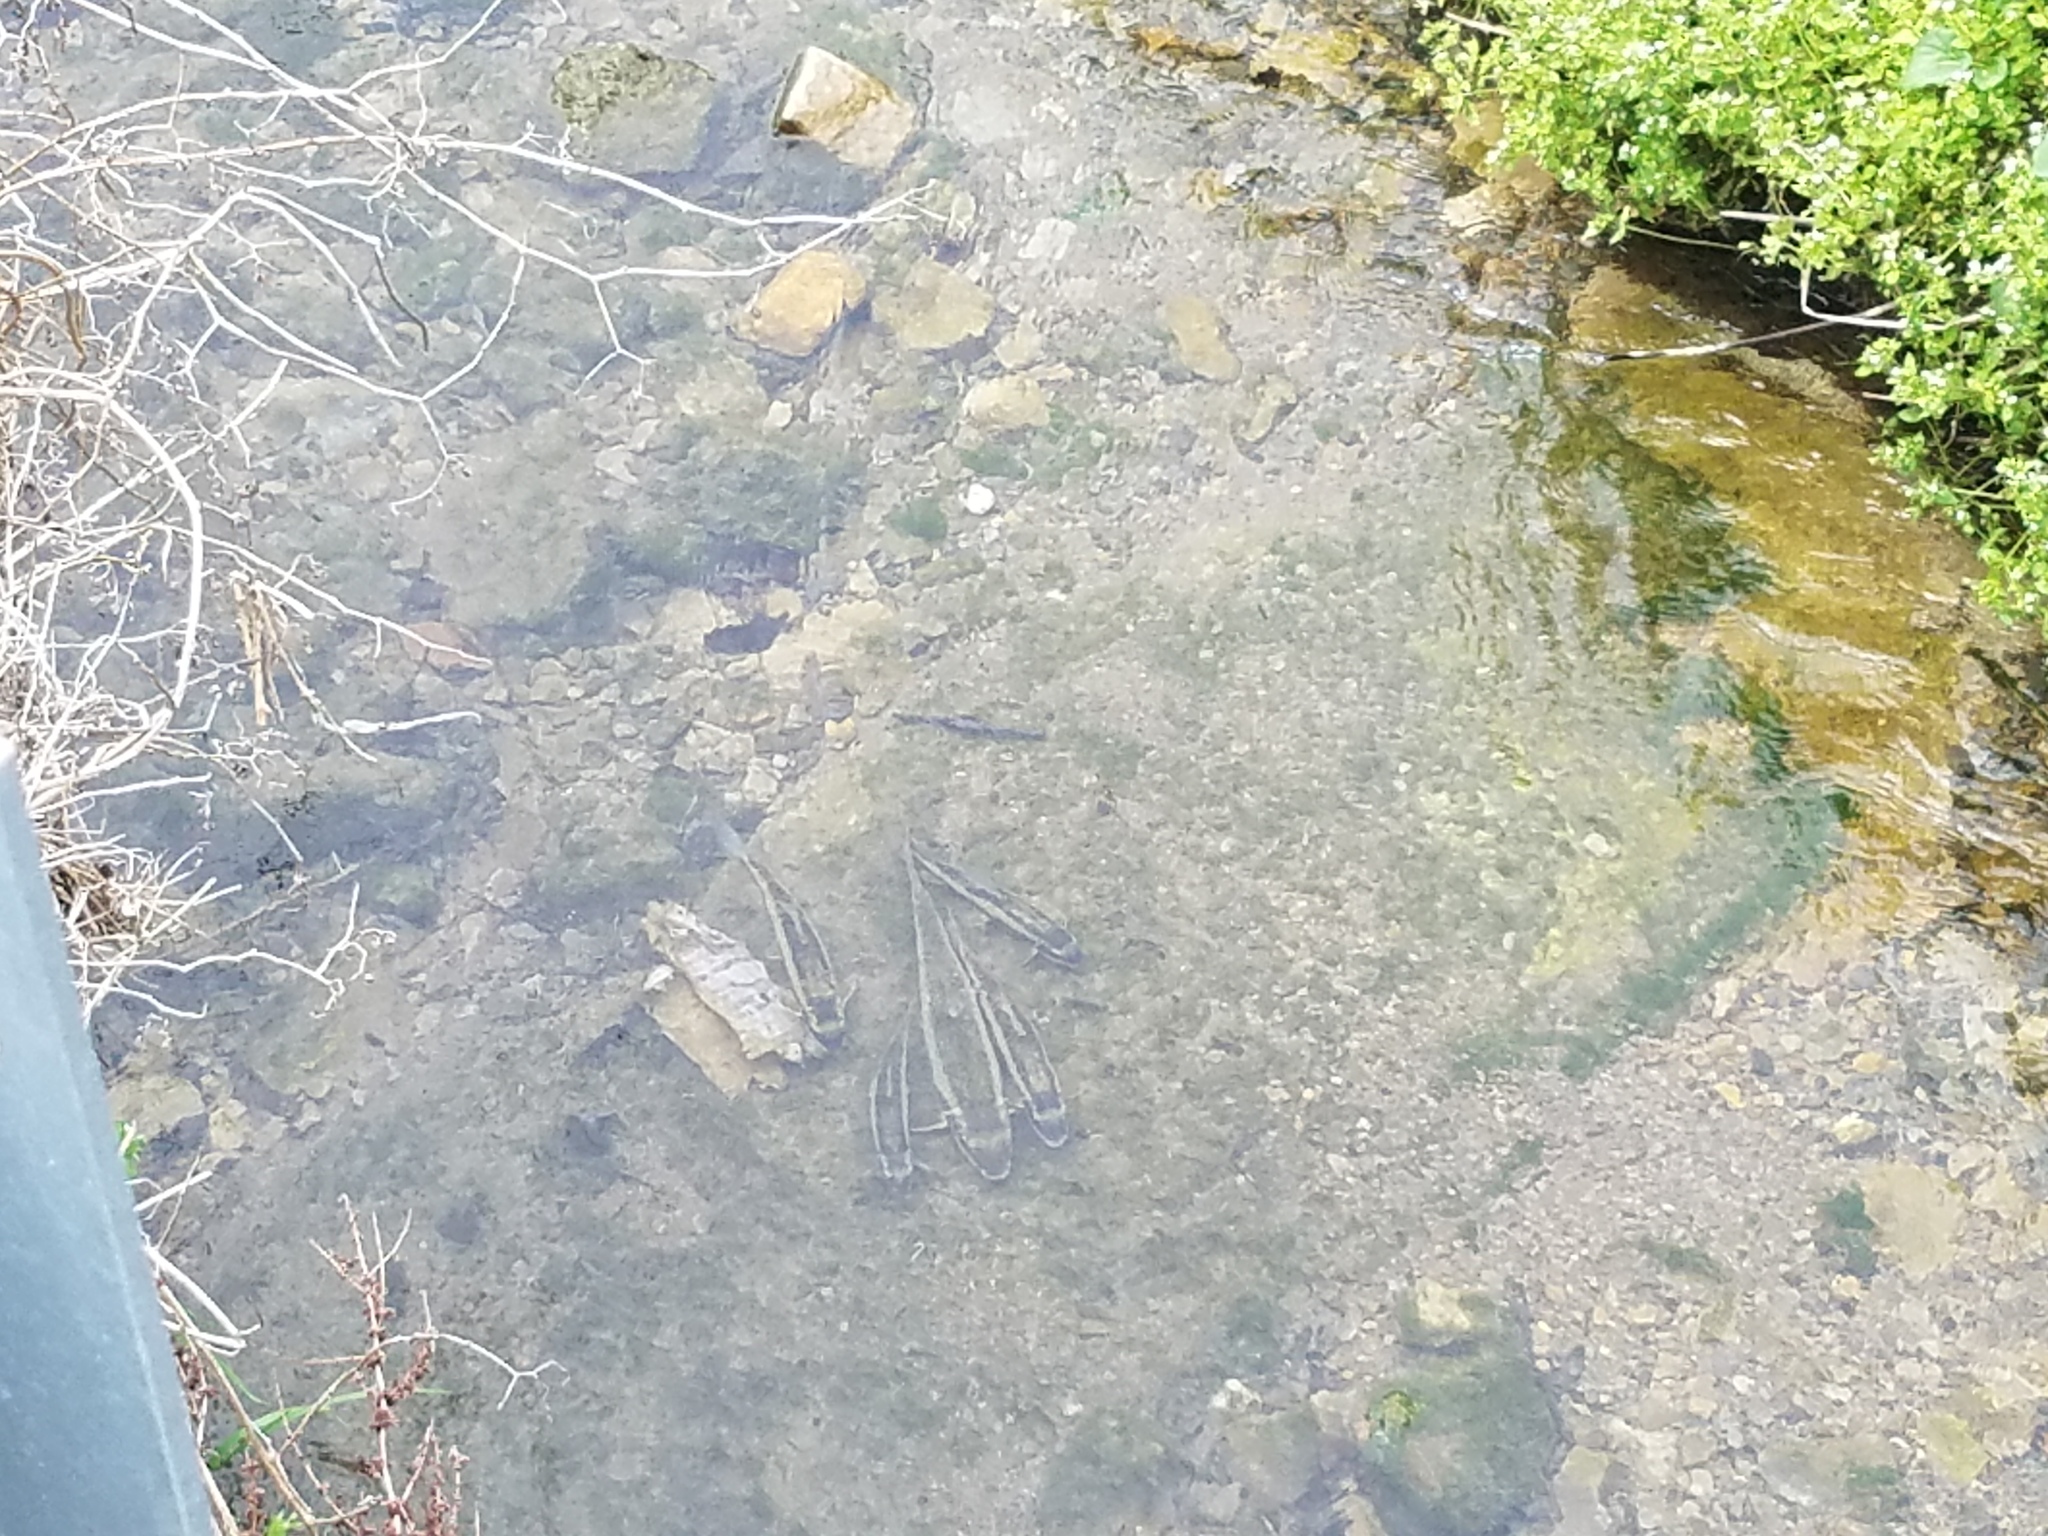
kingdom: Animalia
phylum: Chordata
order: Cypriniformes
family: Catostomidae
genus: Catostomus
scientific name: Catostomus commersonii
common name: White sucker
